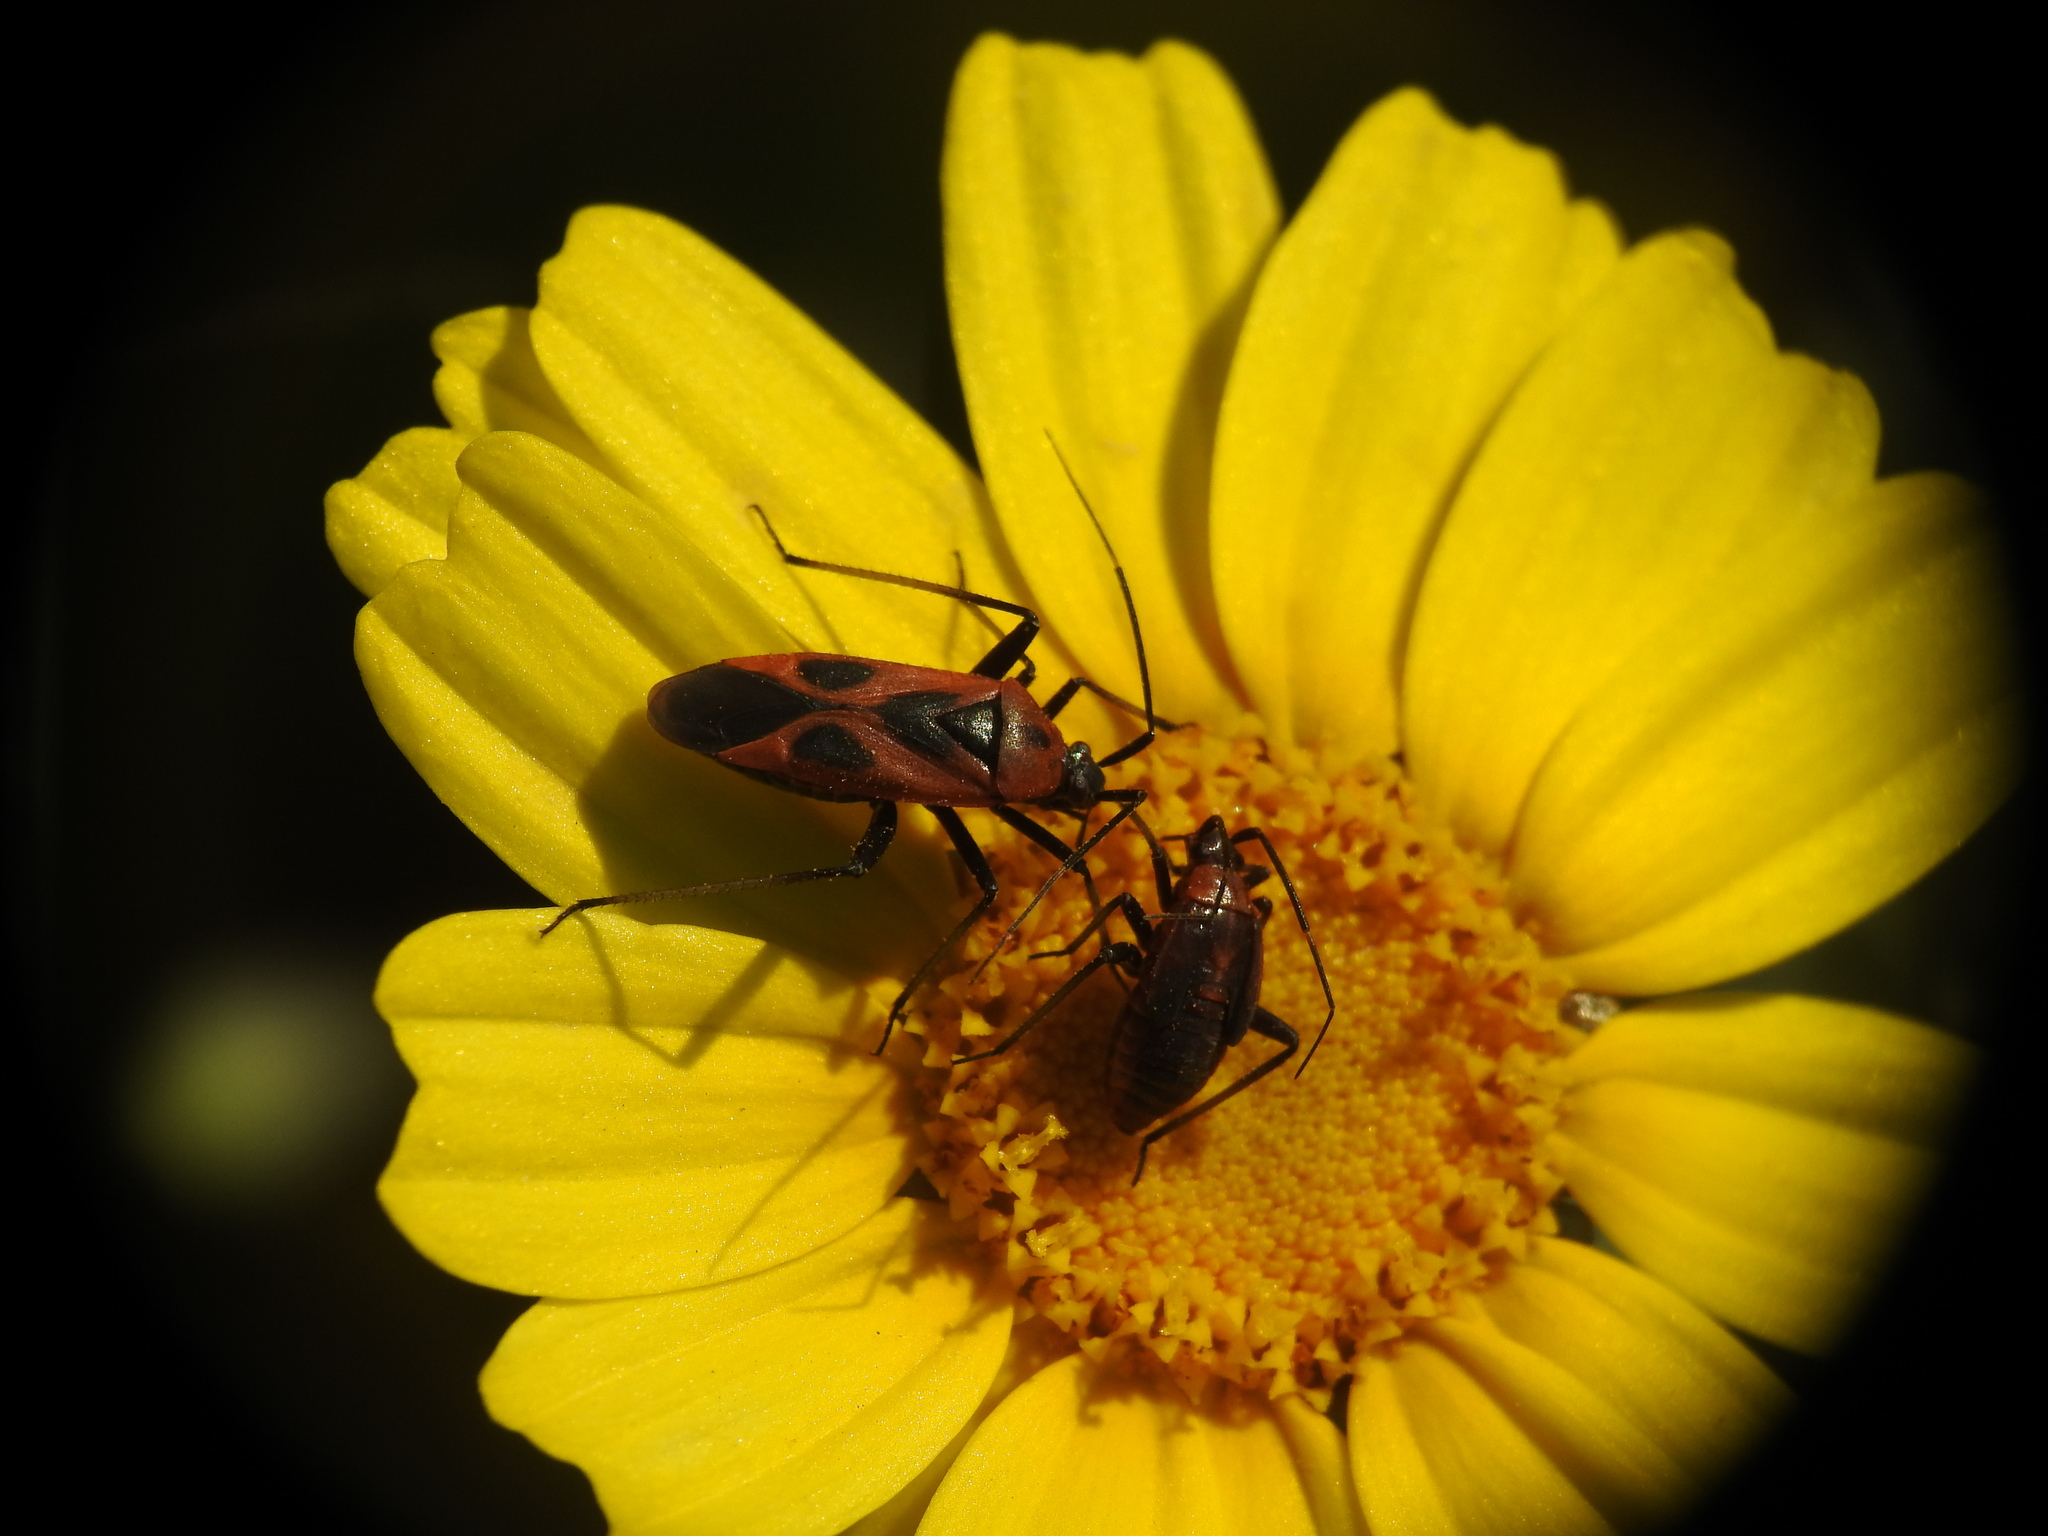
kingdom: Animalia
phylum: Arthropoda
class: Insecta
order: Hemiptera
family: Miridae
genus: Calocoris
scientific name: Calocoris nemoralis
